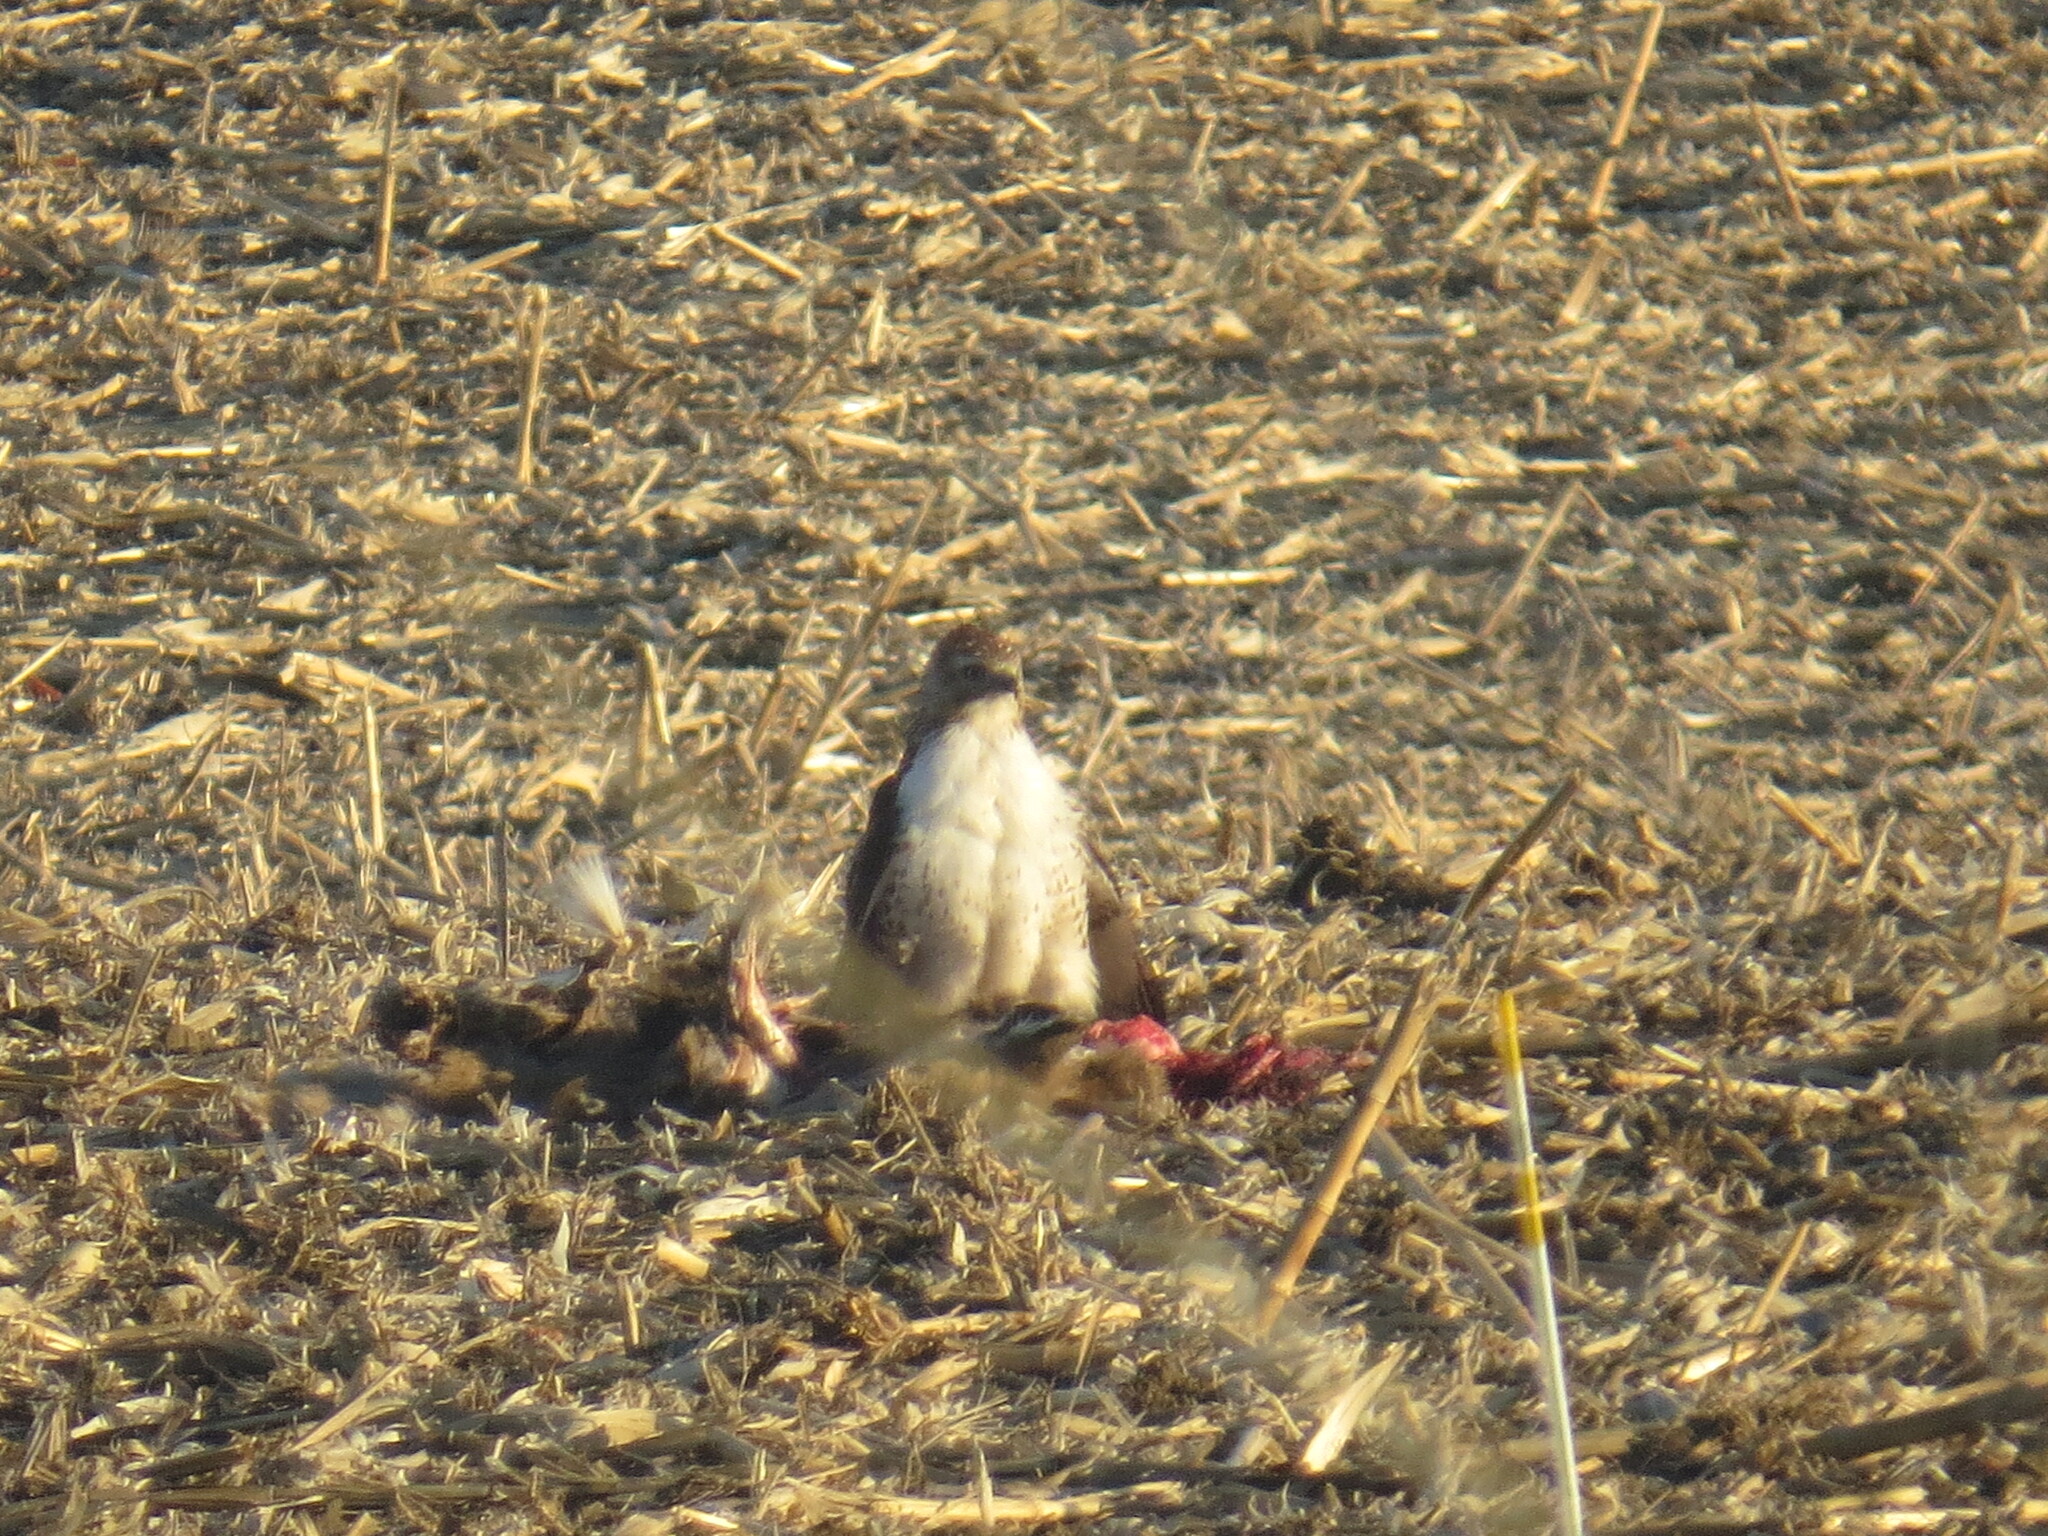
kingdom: Animalia
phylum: Chordata
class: Aves
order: Accipitriformes
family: Accipitridae
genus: Buteo
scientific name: Buteo jamaicensis
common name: Red-tailed hawk
